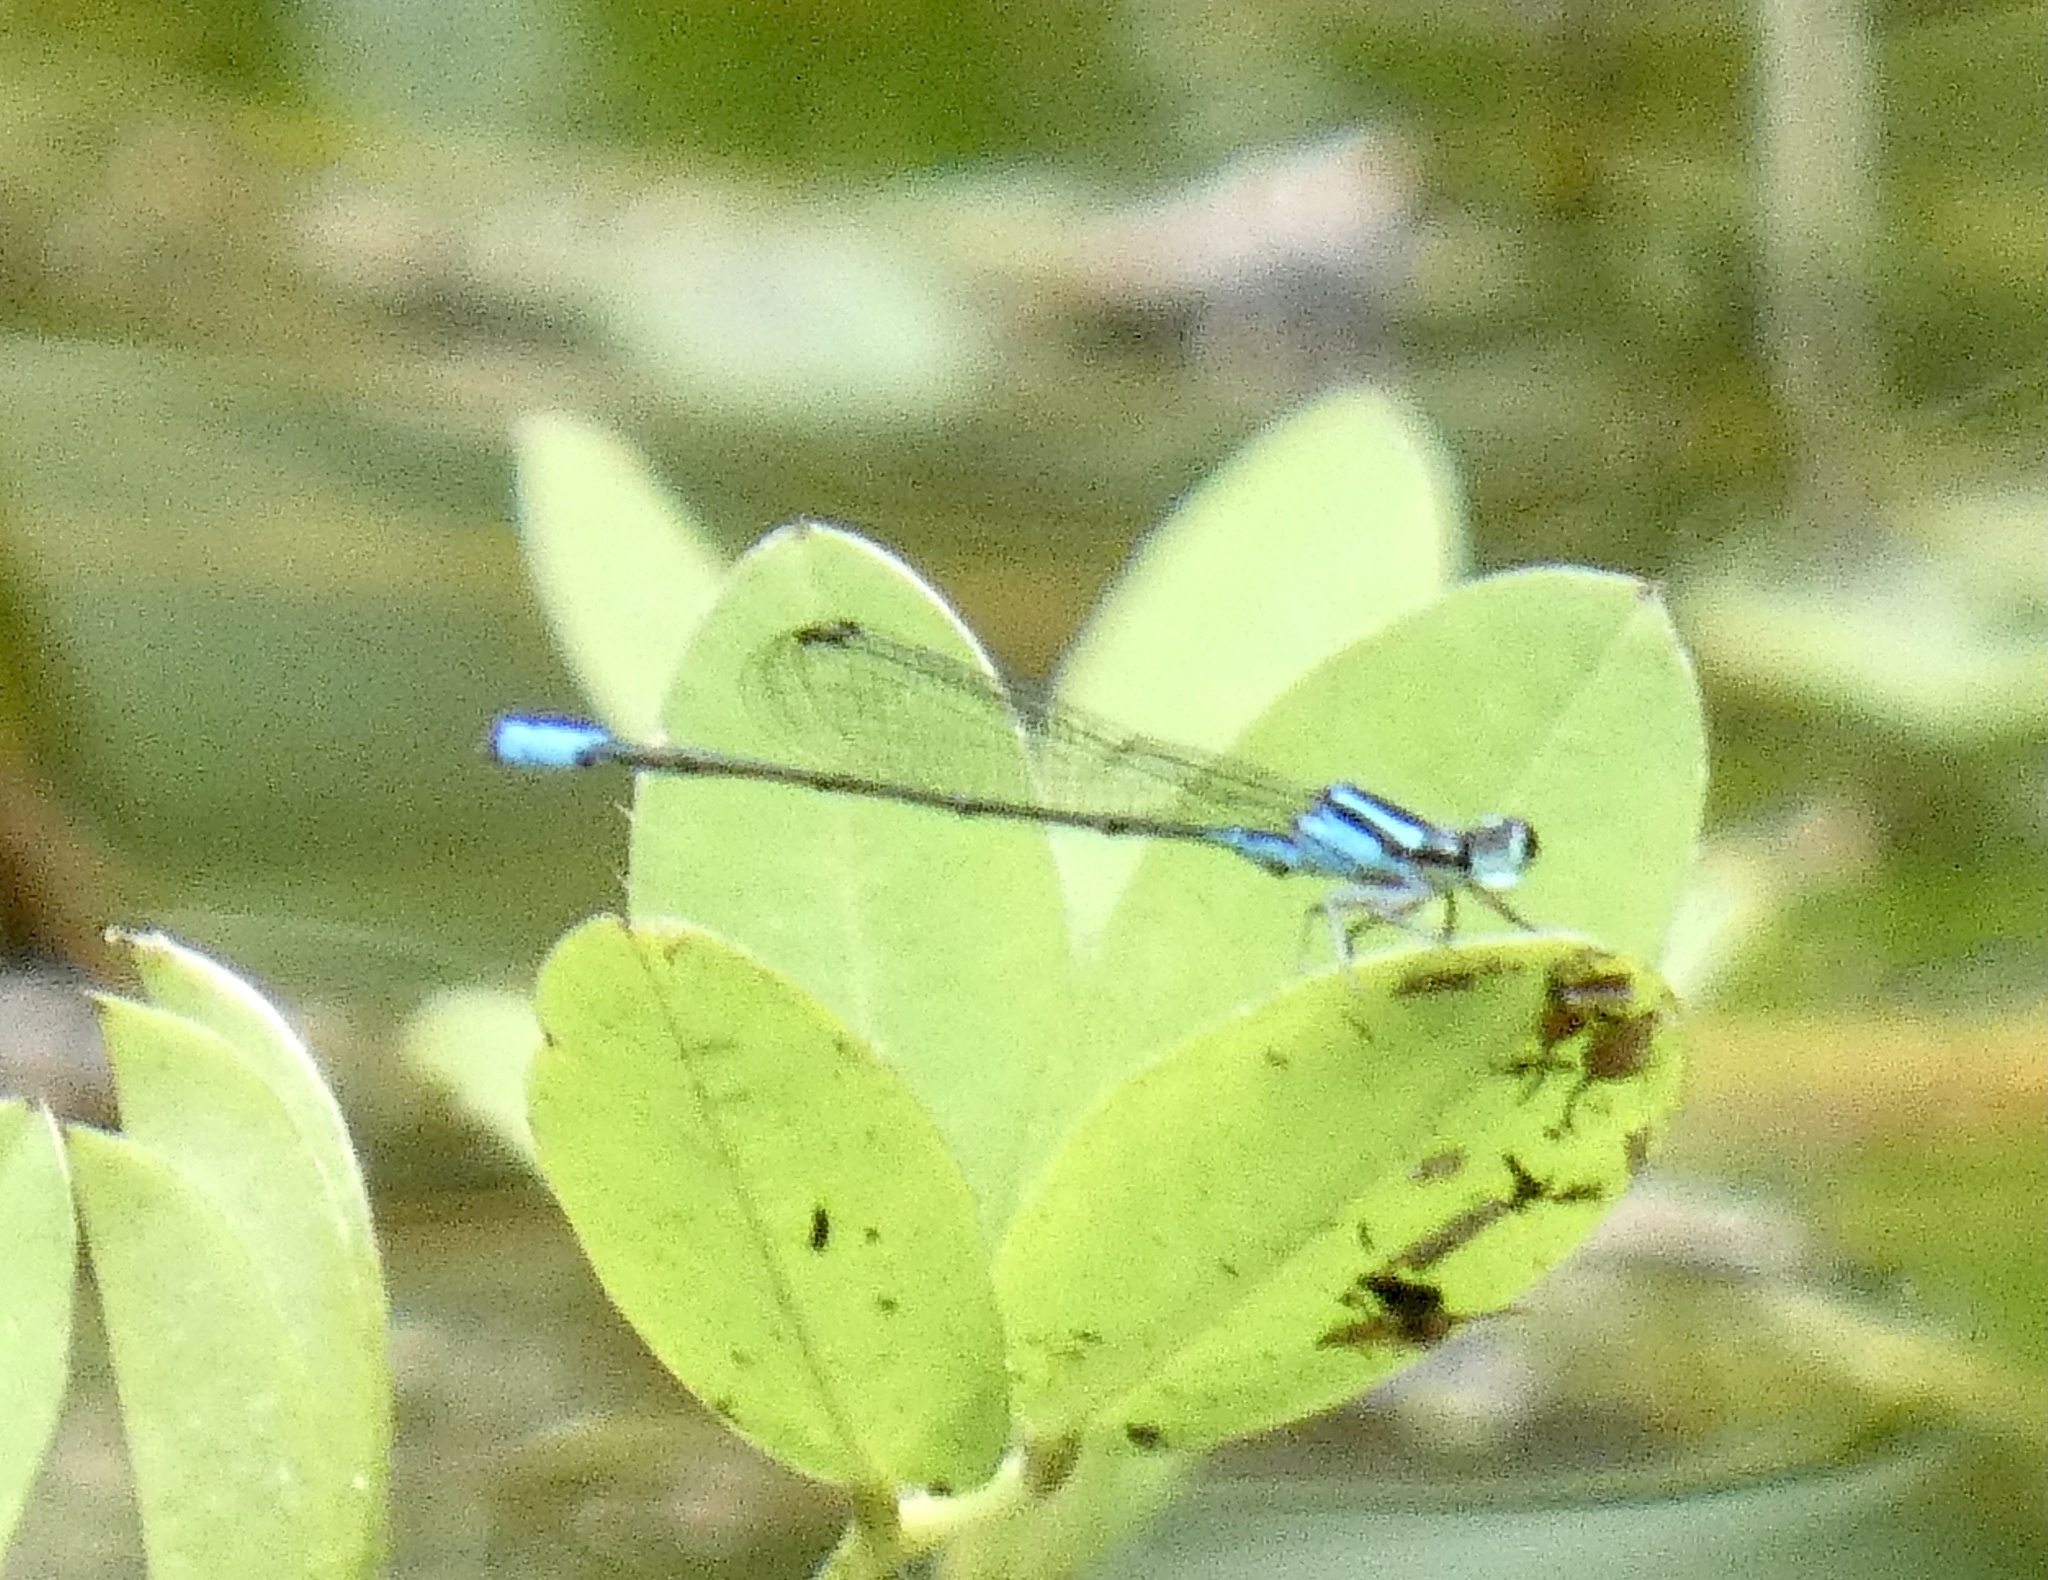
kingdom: Animalia
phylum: Arthropoda
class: Insecta
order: Odonata
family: Coenagrionidae
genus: Acanthagrion
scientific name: Acanthagrion gracile
